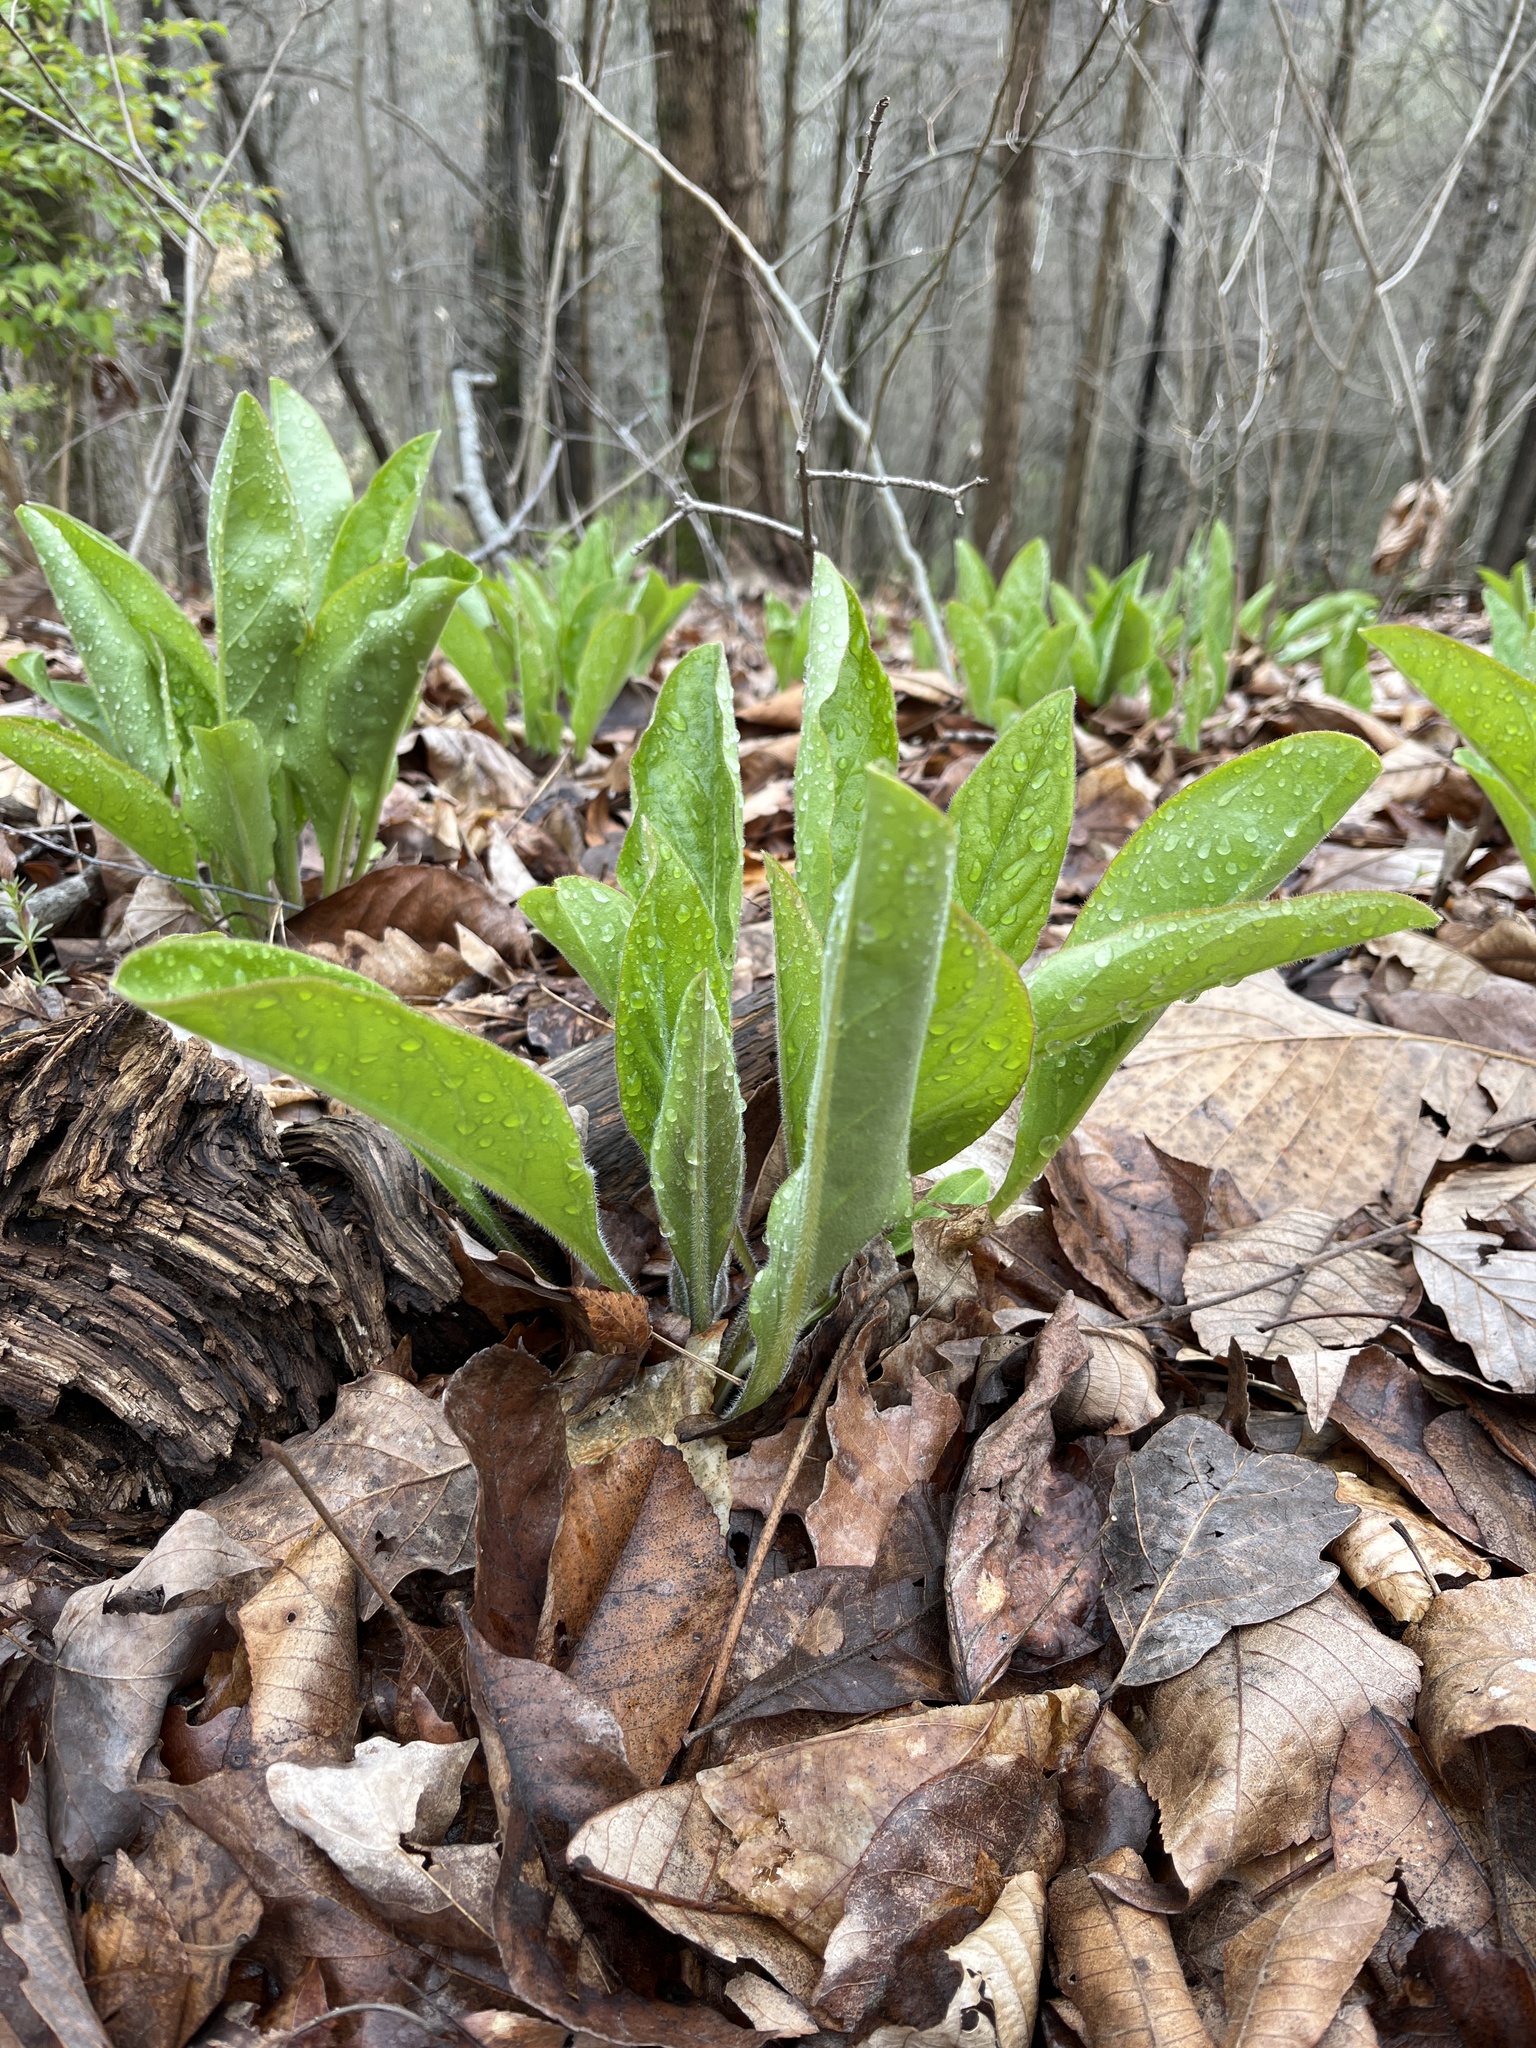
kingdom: Plantae
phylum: Tracheophyta
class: Magnoliopsida
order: Boraginales
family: Boraginaceae
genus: Andersonglossum
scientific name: Andersonglossum virginianum
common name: Wild comfrey
